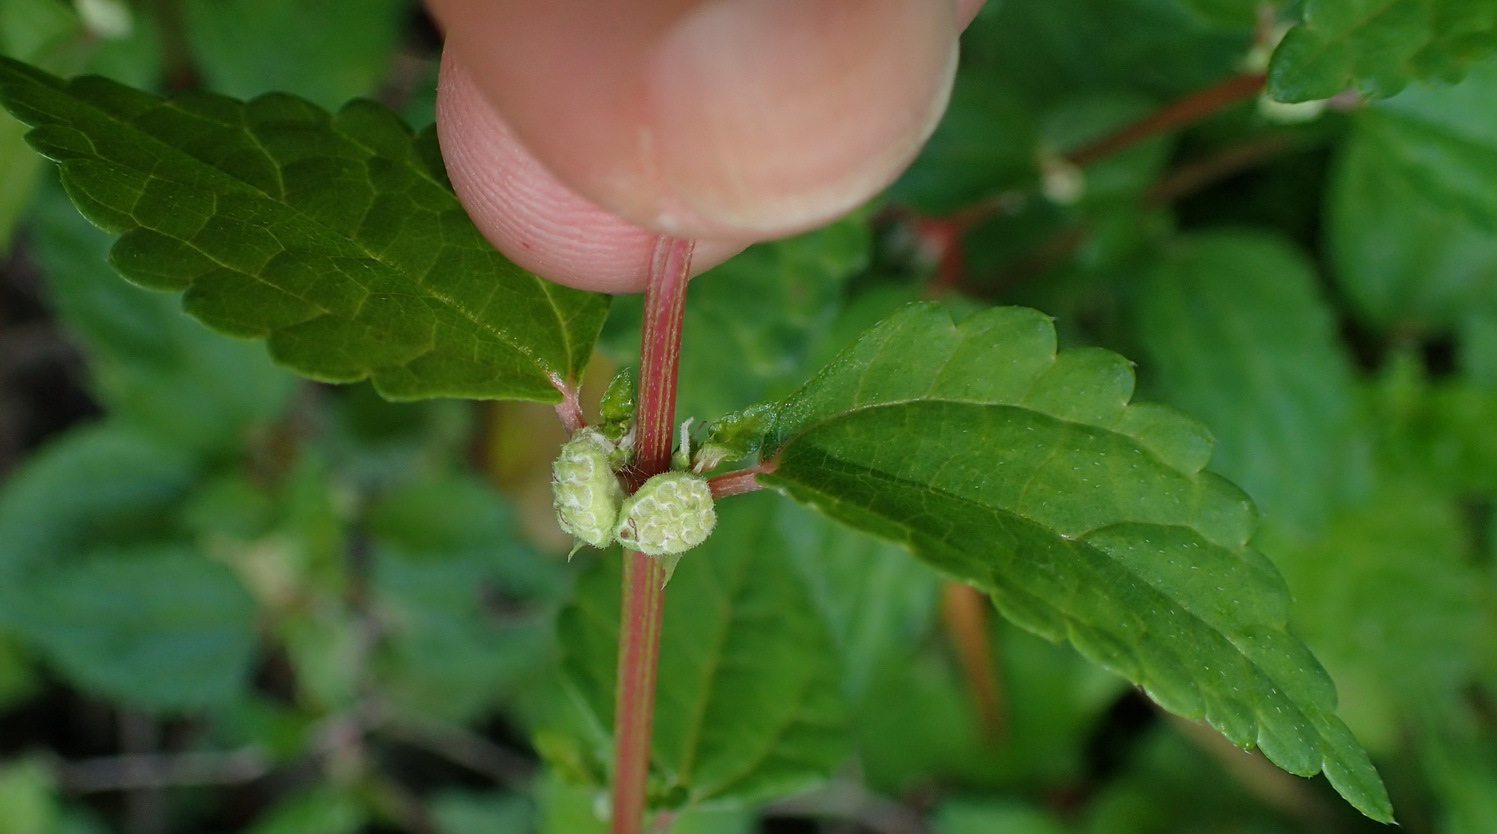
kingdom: Plantae
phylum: Tracheophyta
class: Magnoliopsida
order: Rosales
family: Urticaceae
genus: Droguetia
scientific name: Droguetia iners
